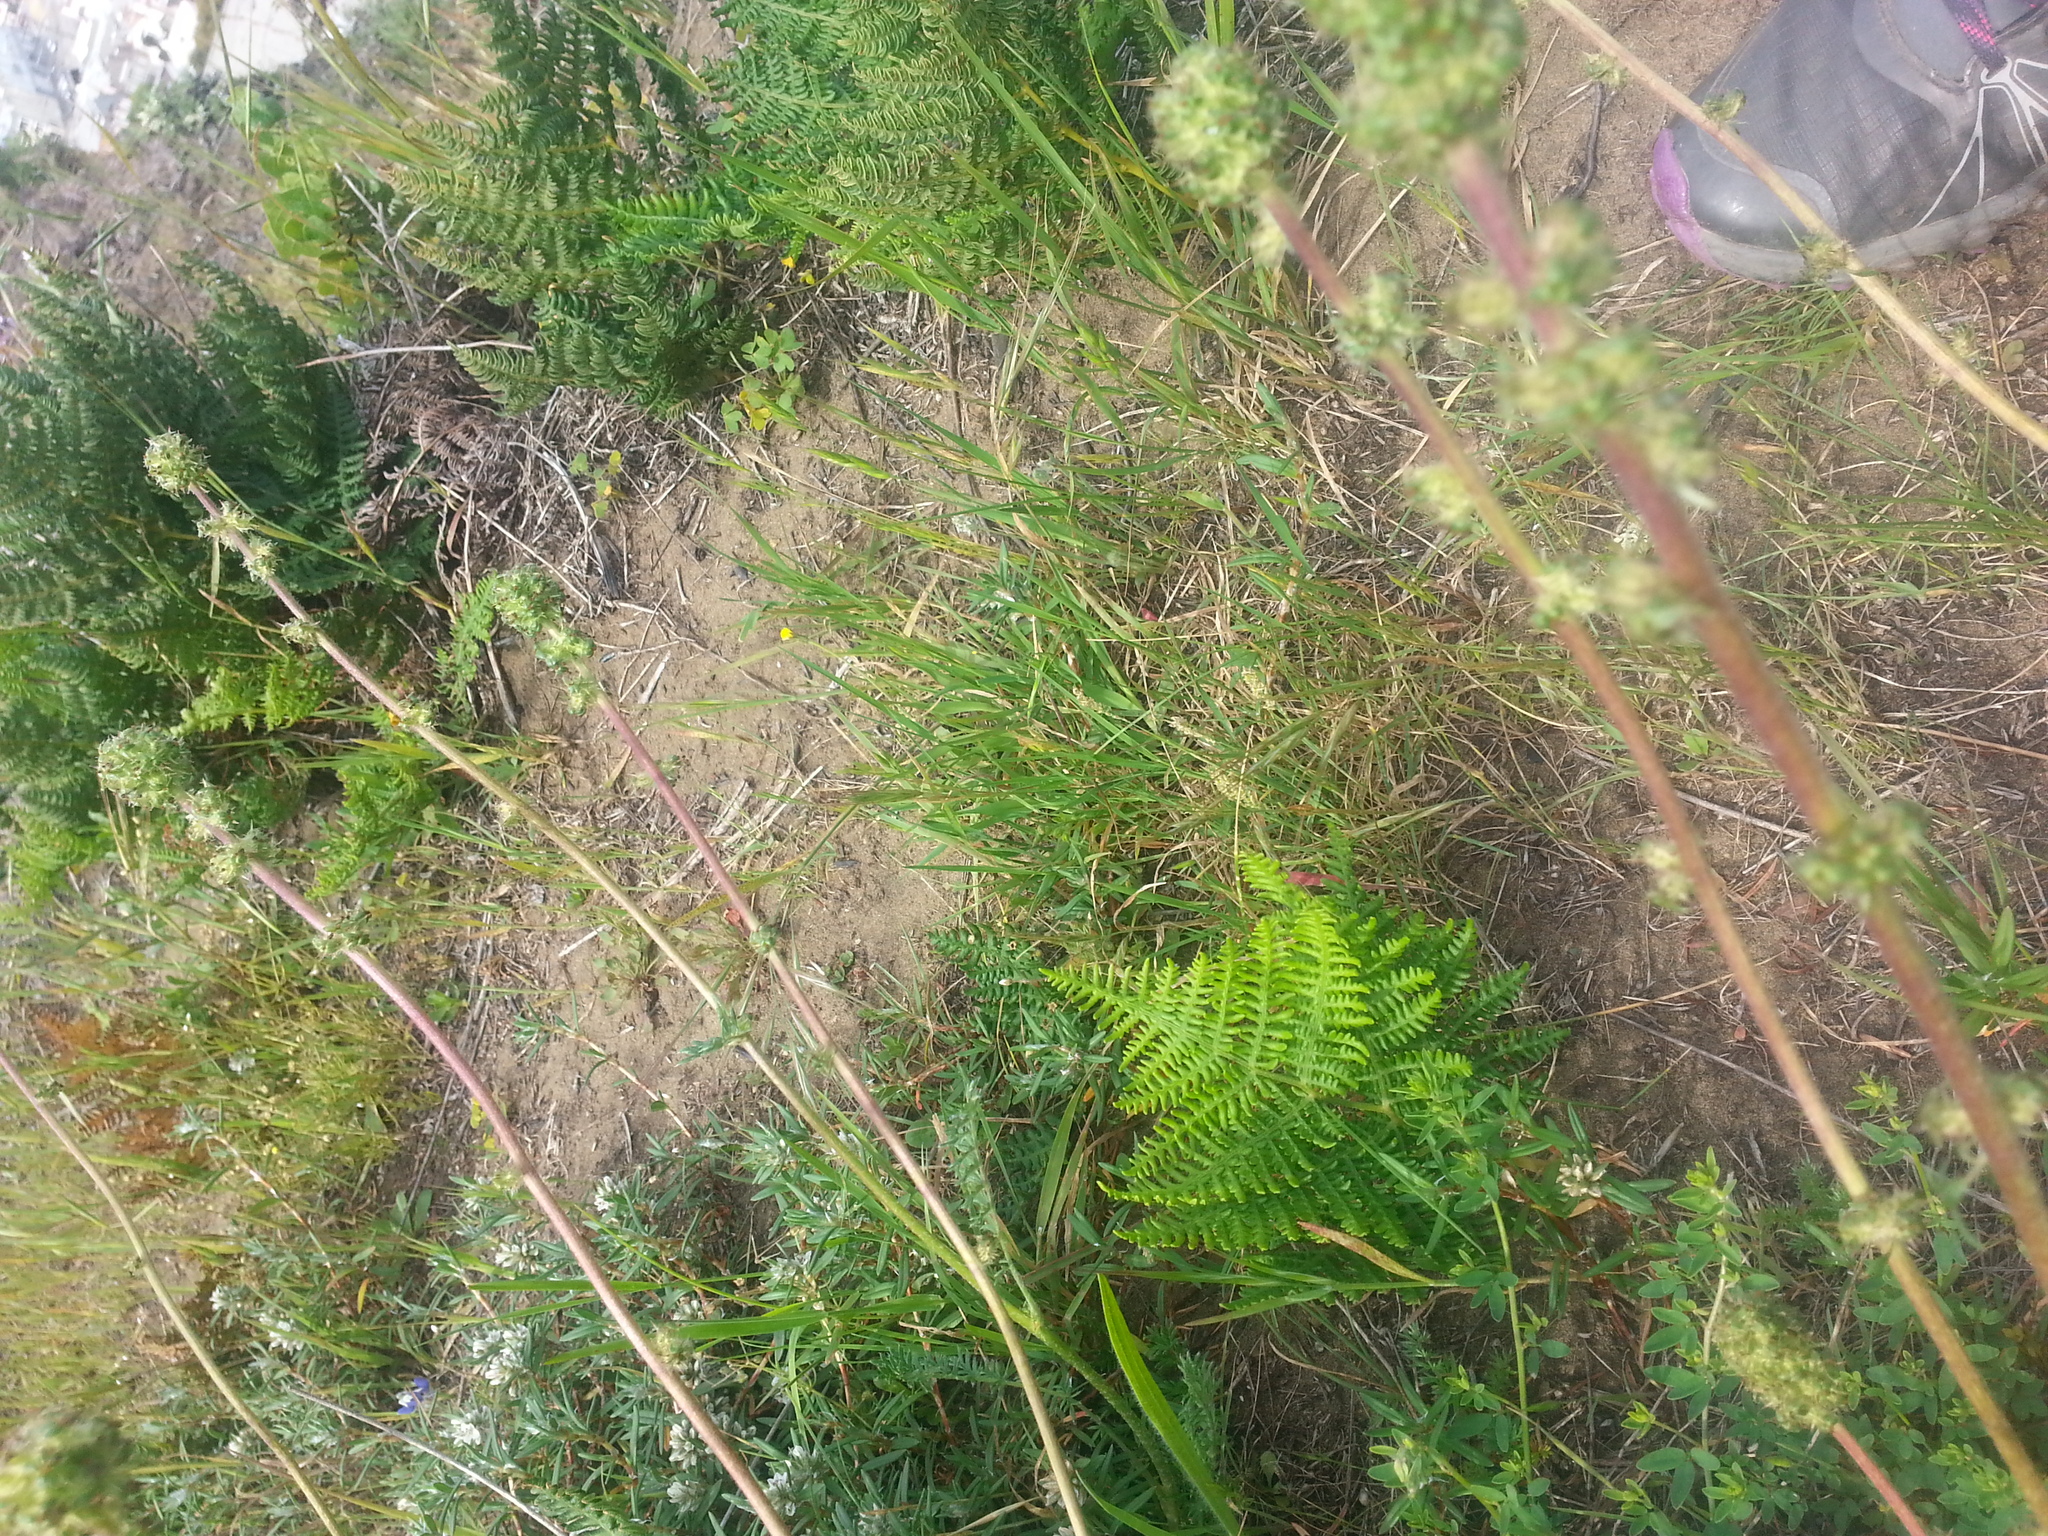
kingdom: Plantae
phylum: Tracheophyta
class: Magnoliopsida
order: Rosales
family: Rosaceae
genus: Acaena
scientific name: Acaena pinnatifida
